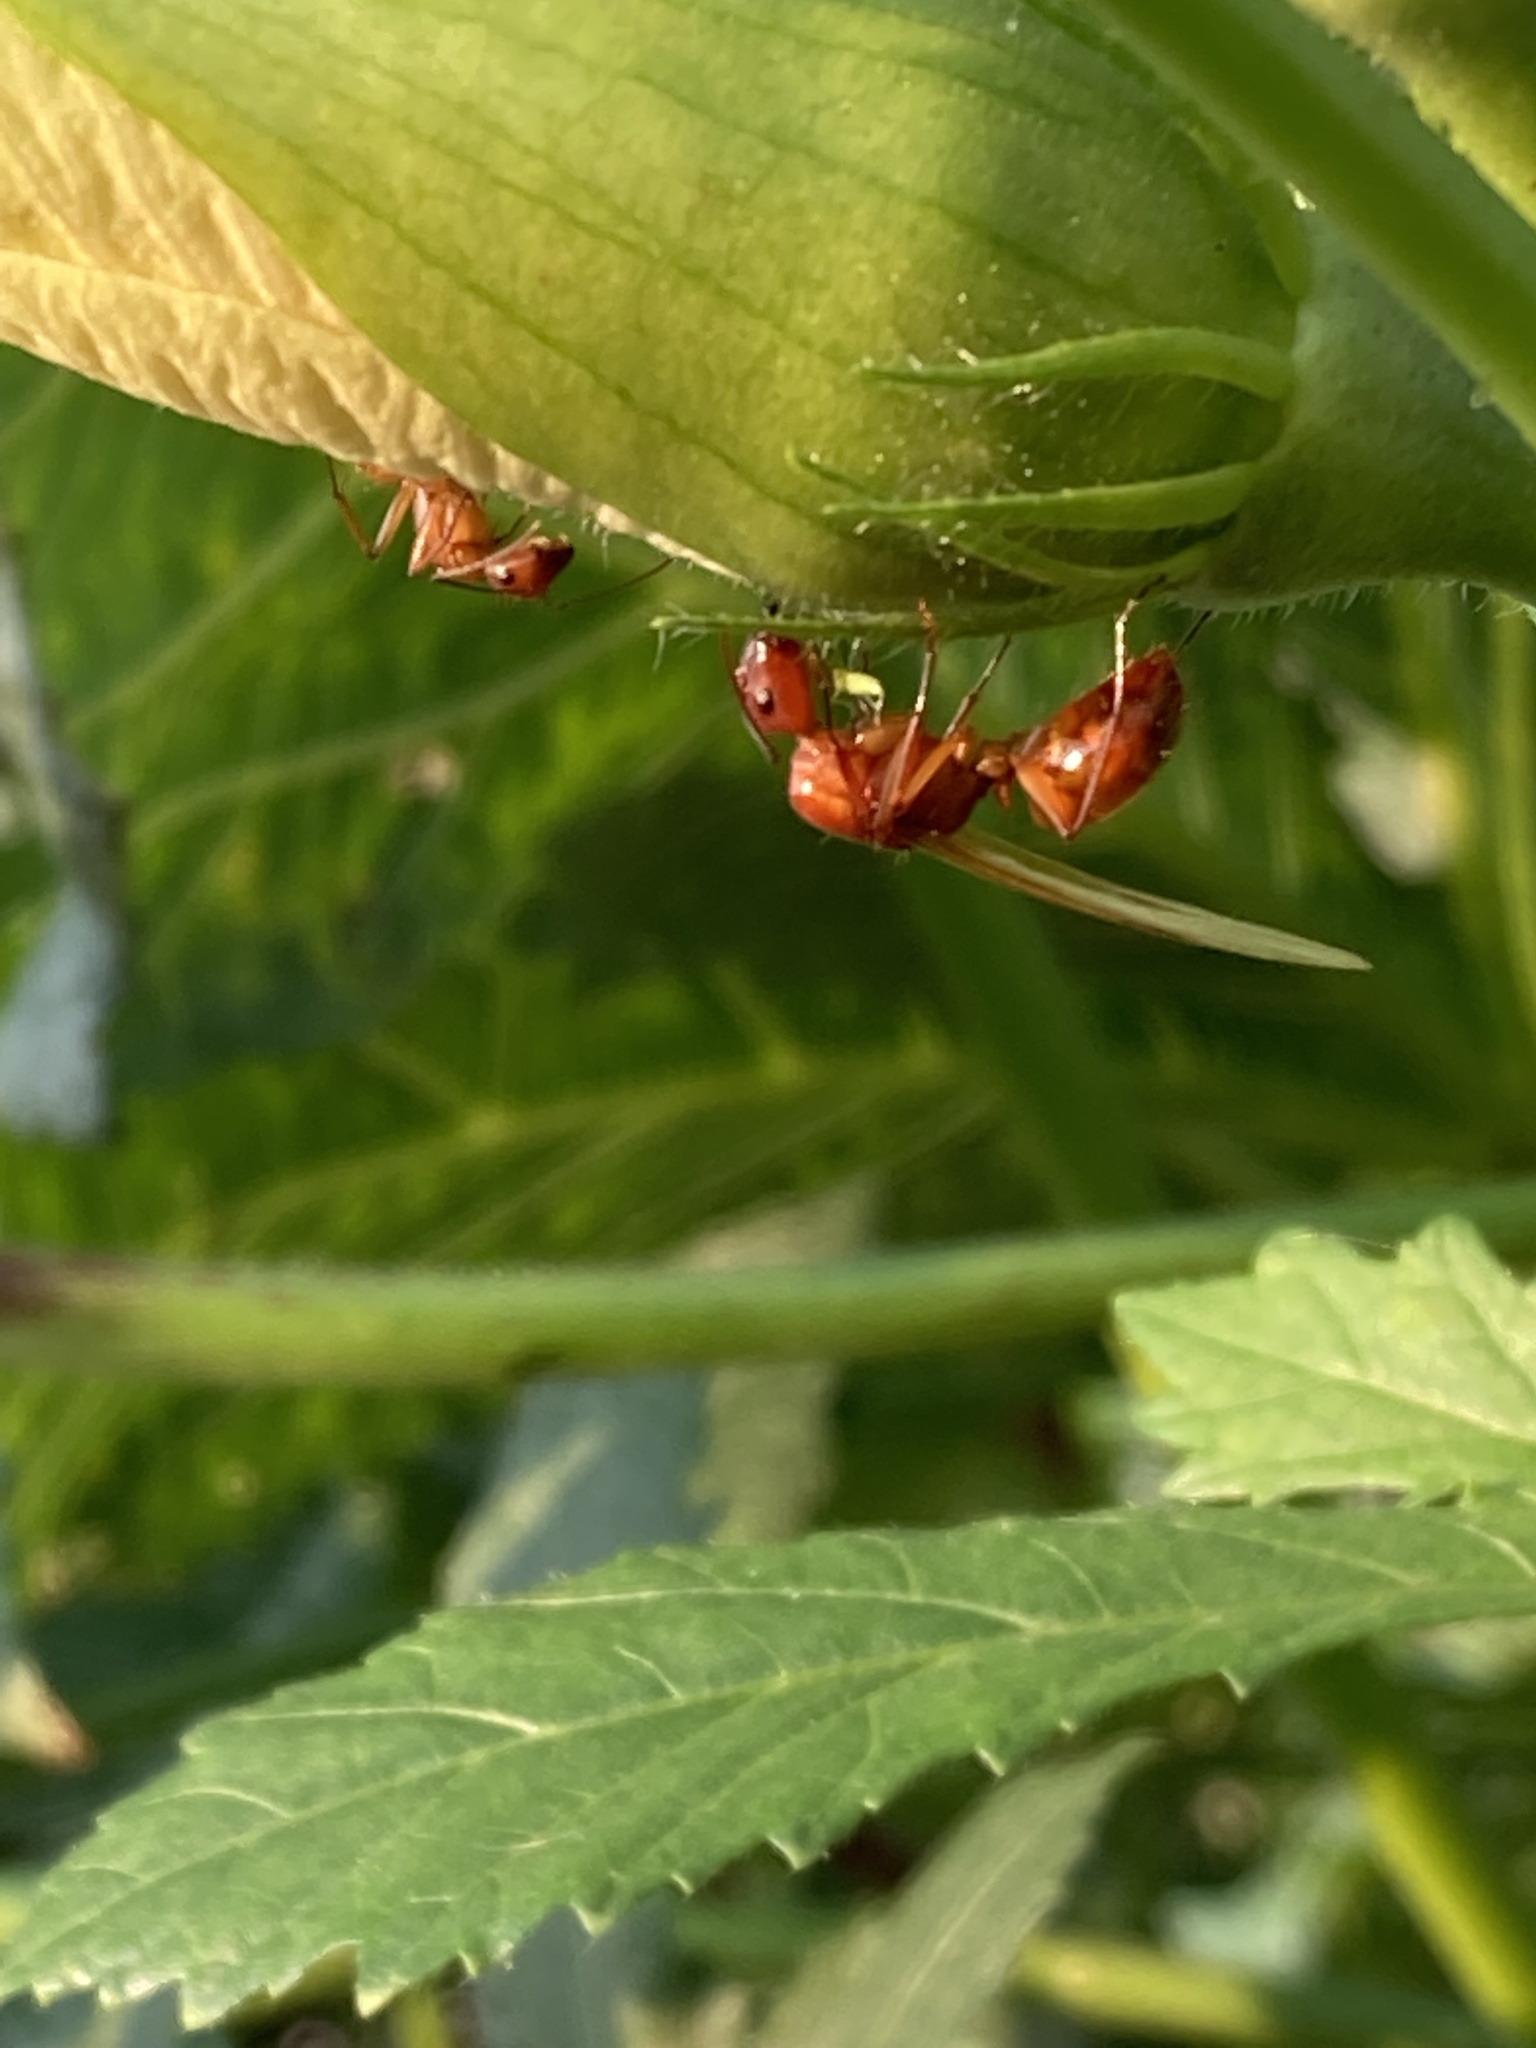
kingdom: Animalia
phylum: Arthropoda
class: Insecta
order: Hymenoptera
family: Formicidae
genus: Camponotus
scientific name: Camponotus castaneus
